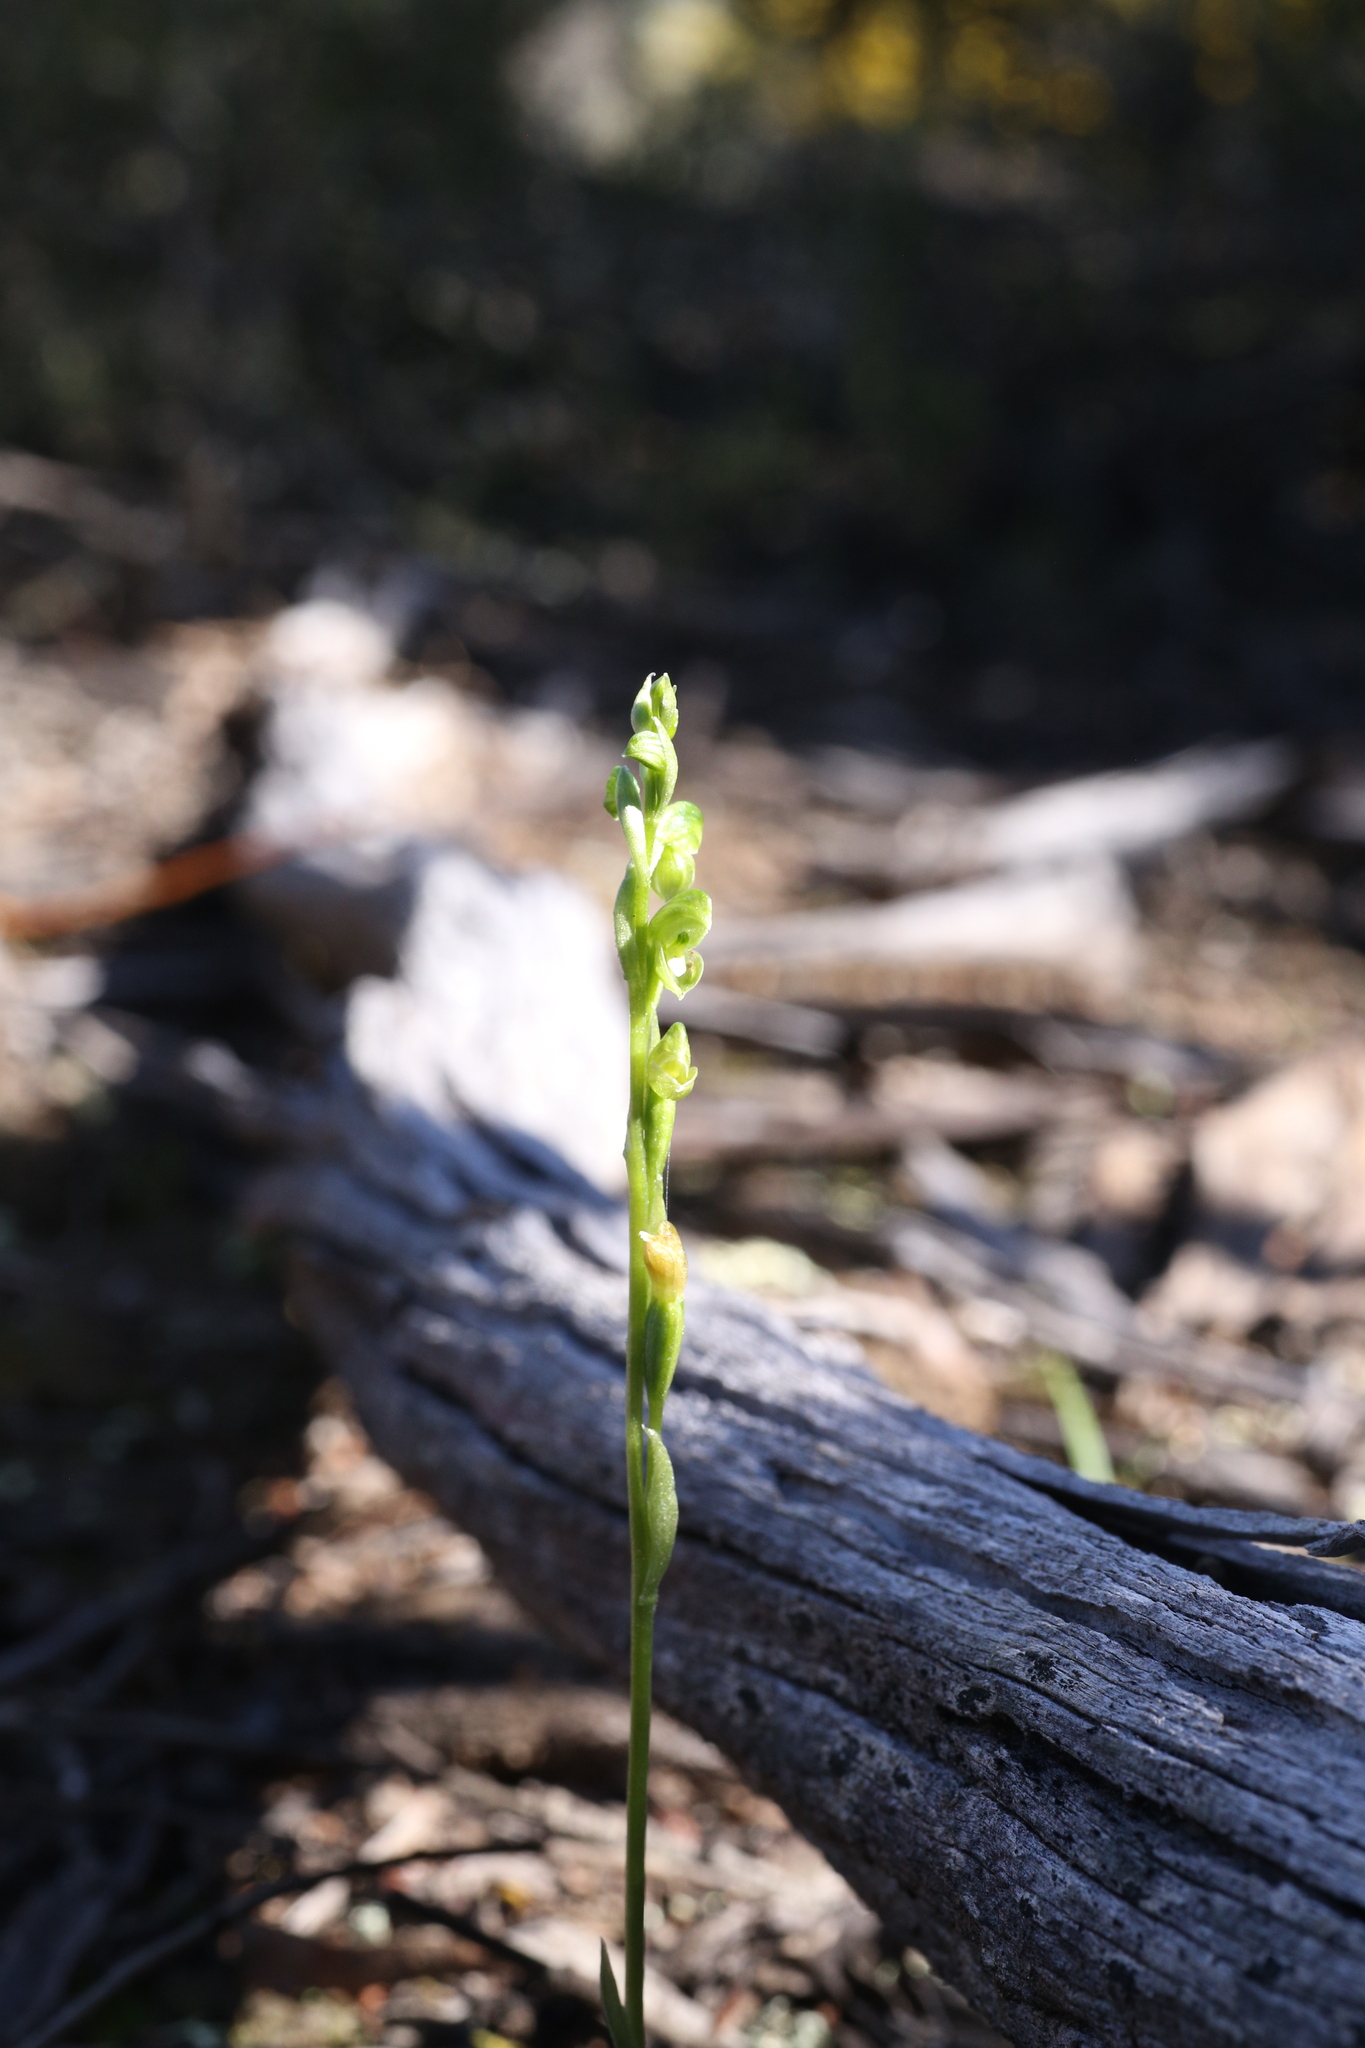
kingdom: Plantae
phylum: Tracheophyta
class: Liliopsida
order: Asparagales
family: Orchidaceae
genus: Pterostylis
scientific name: Pterostylis mutica
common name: Midget greenhood
